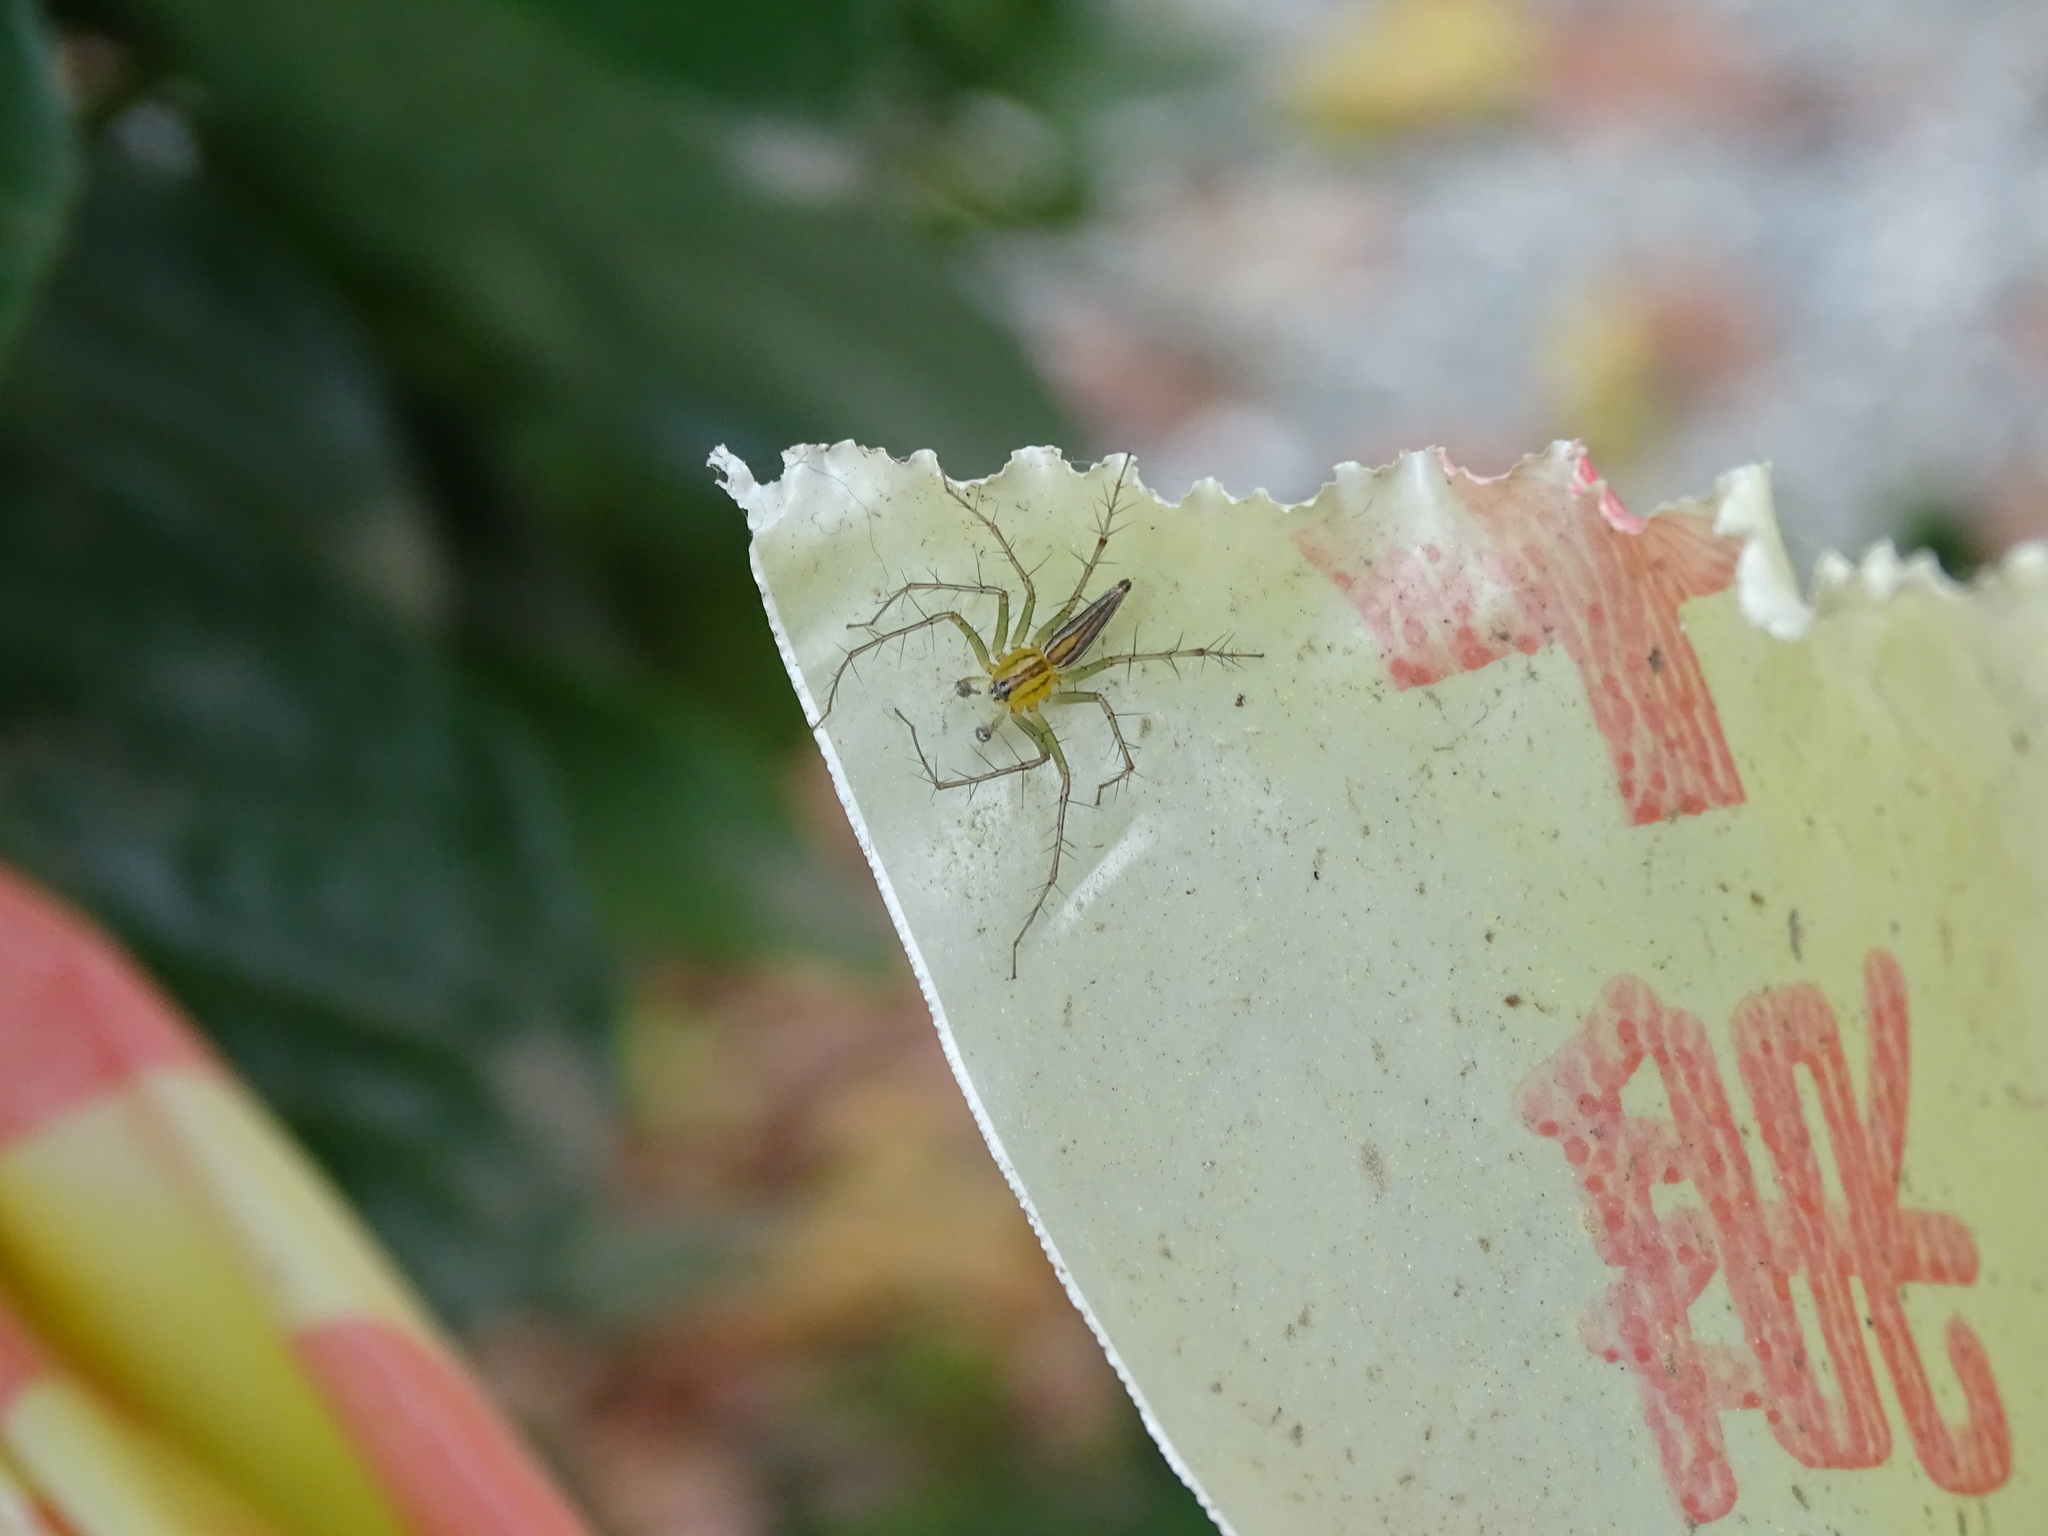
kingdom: Animalia
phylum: Arthropoda
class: Arachnida
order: Araneae
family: Oxyopidae
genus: Oxyopes
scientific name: Oxyopes macilentus
